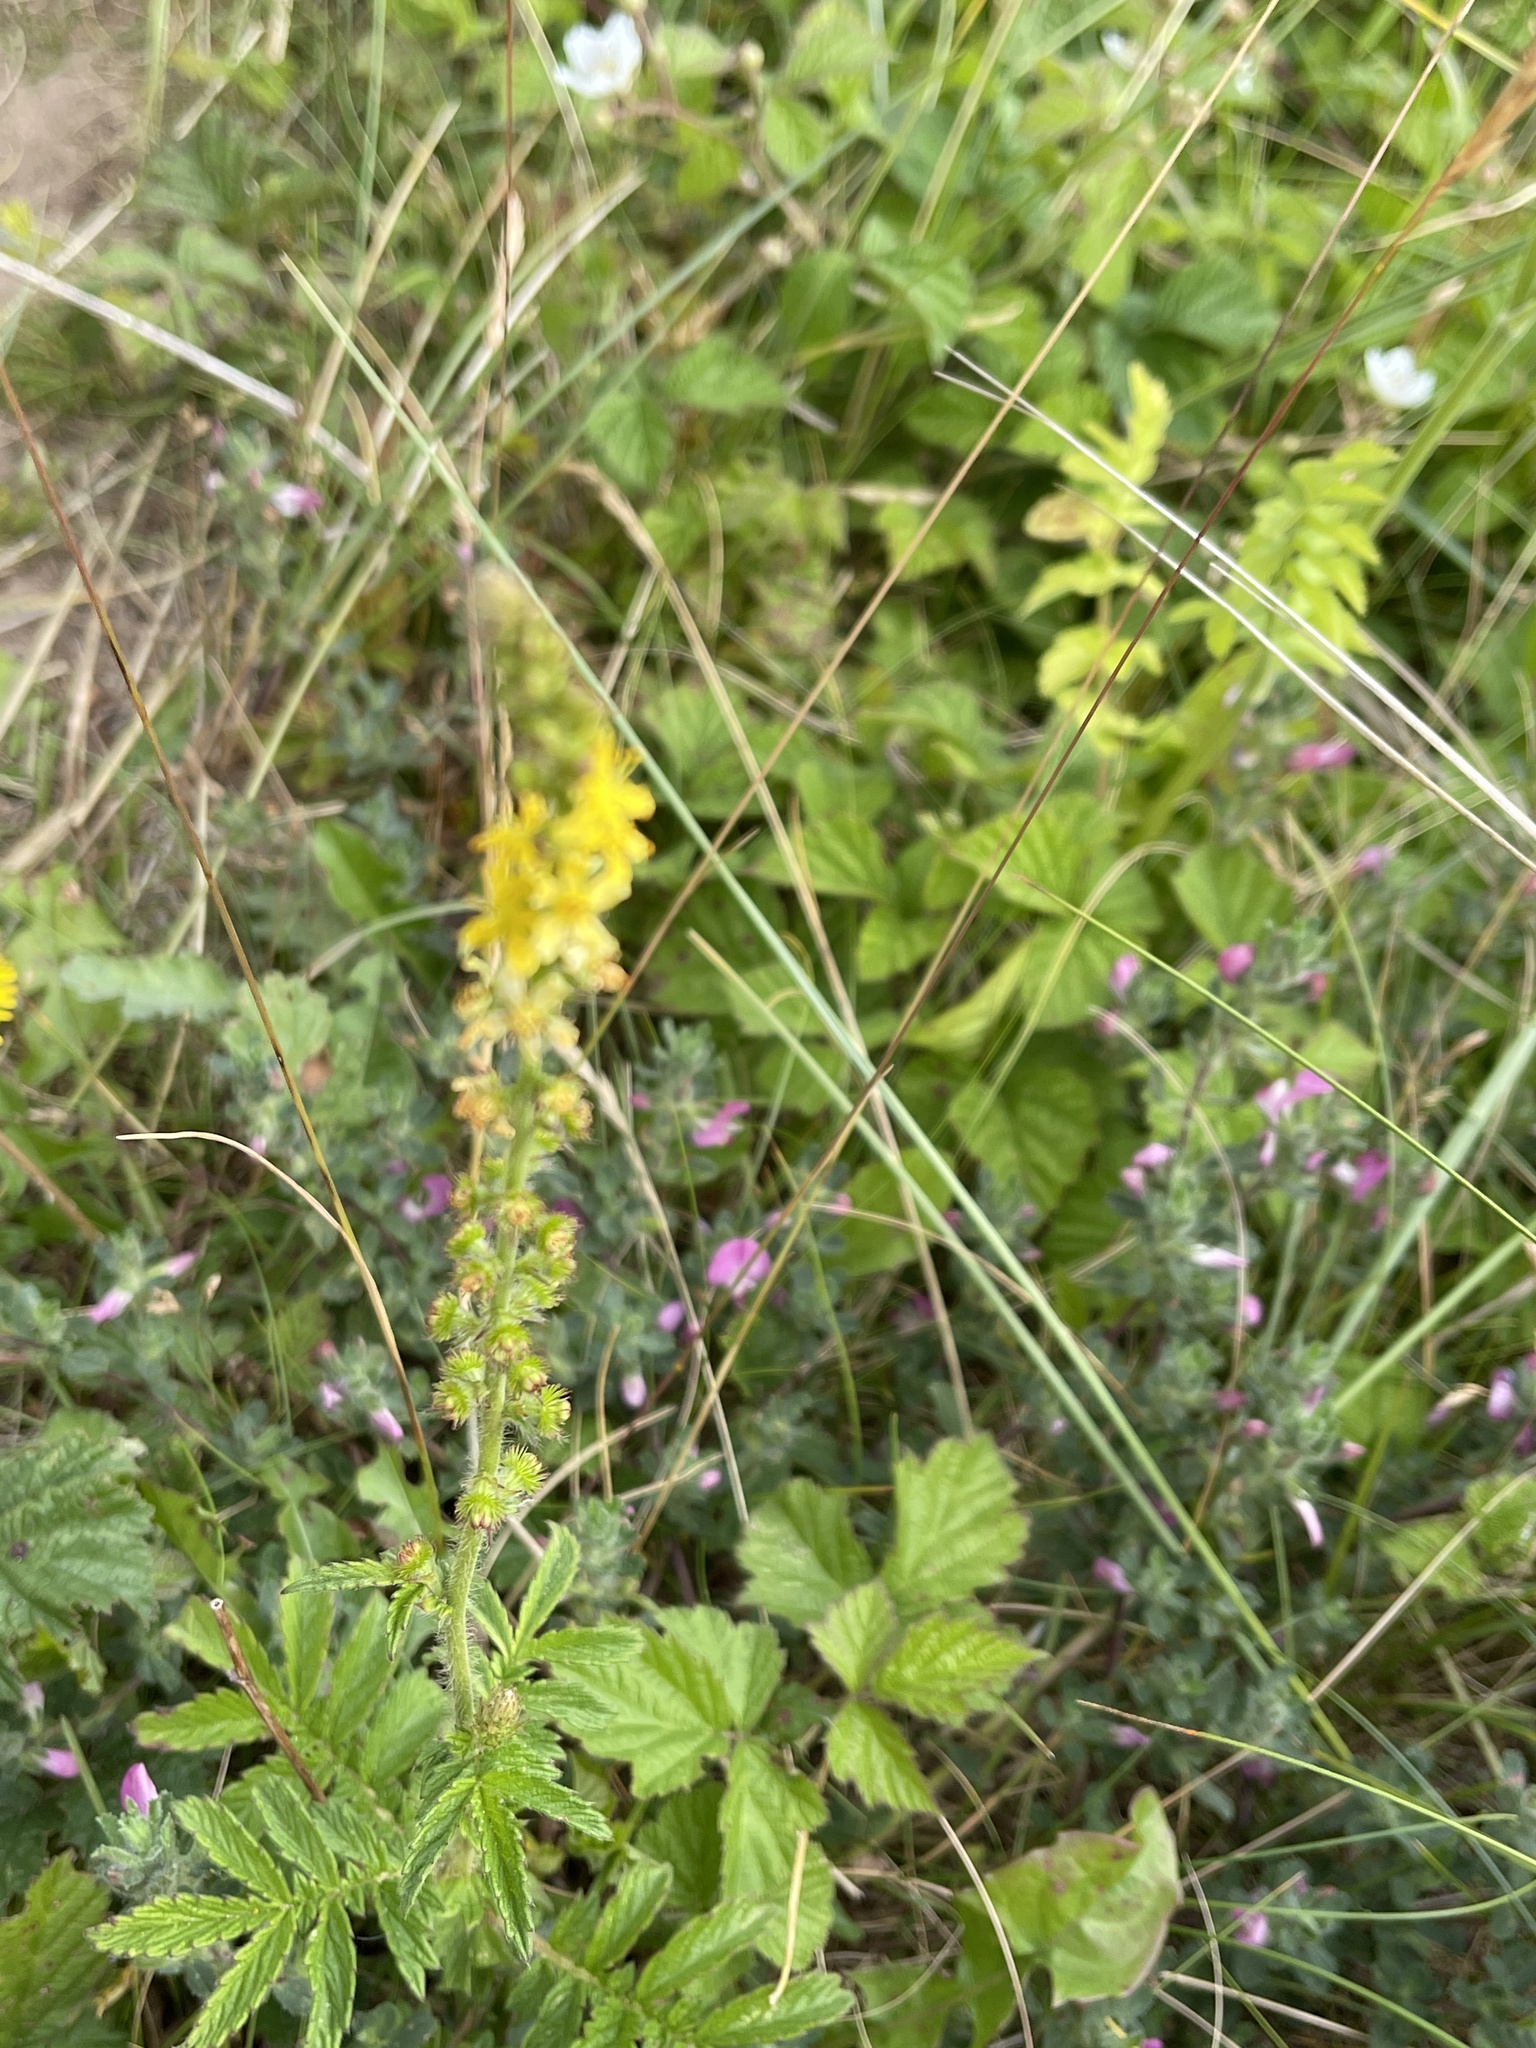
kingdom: Plantae
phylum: Tracheophyta
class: Magnoliopsida
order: Rosales
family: Rosaceae
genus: Agrimonia
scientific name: Agrimonia eupatoria
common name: Agrimony
